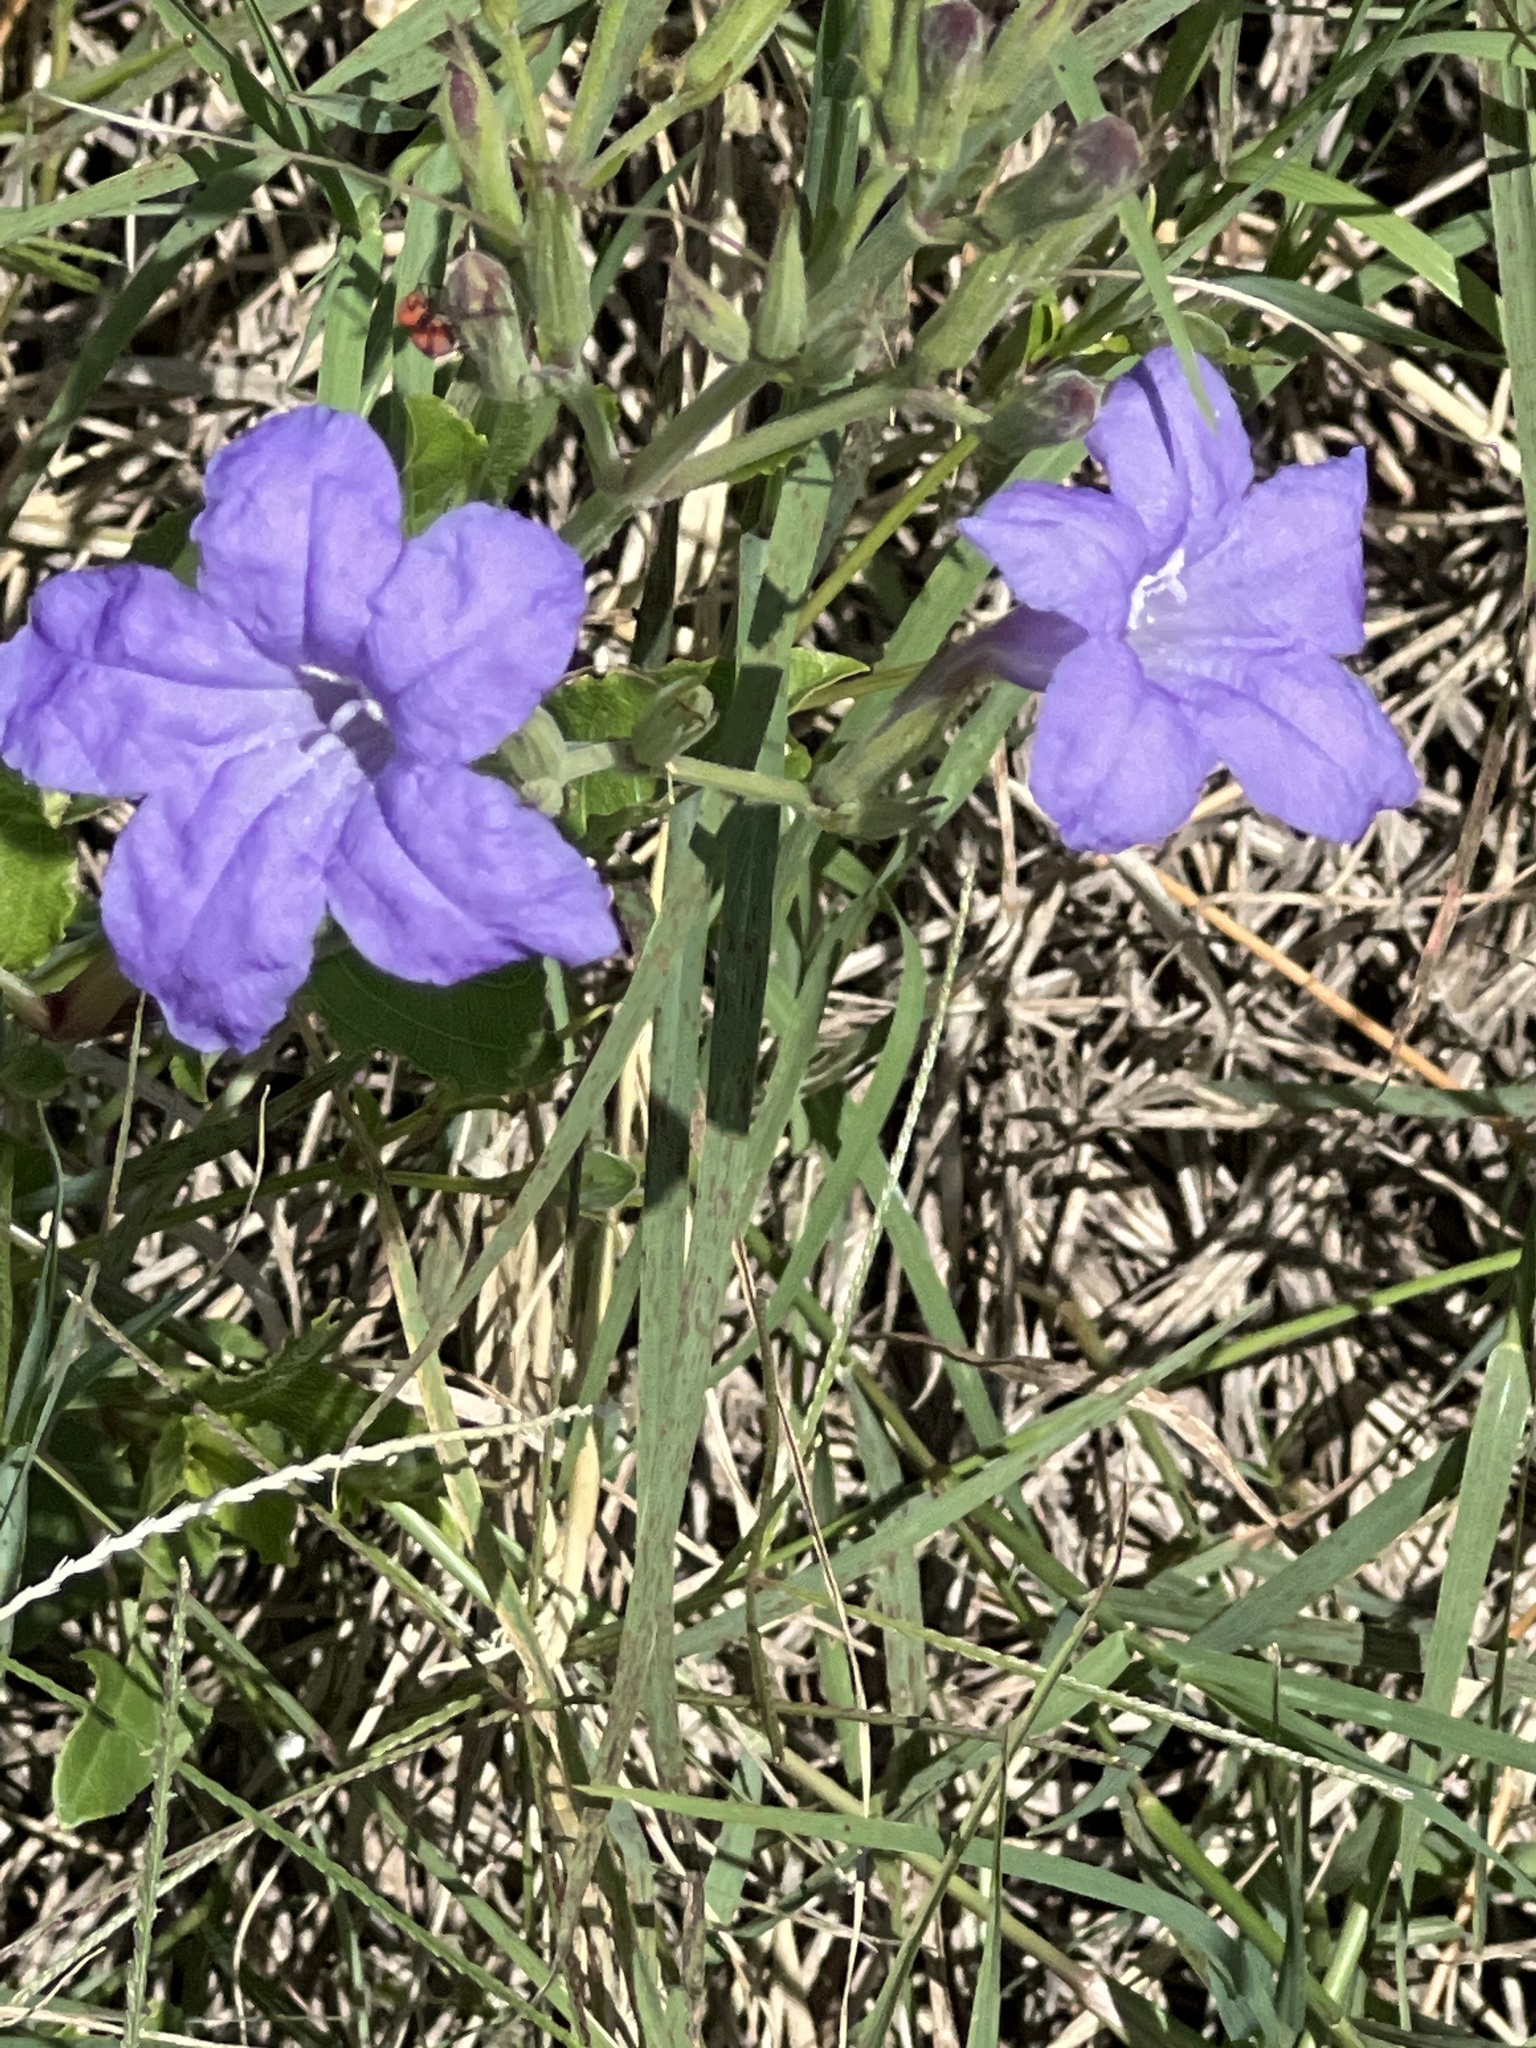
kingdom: Plantae
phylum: Tracheophyta
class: Magnoliopsida
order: Lamiales
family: Acanthaceae
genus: Ruellia
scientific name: Ruellia ciliatiflora
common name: Hairyflower wild petunia
